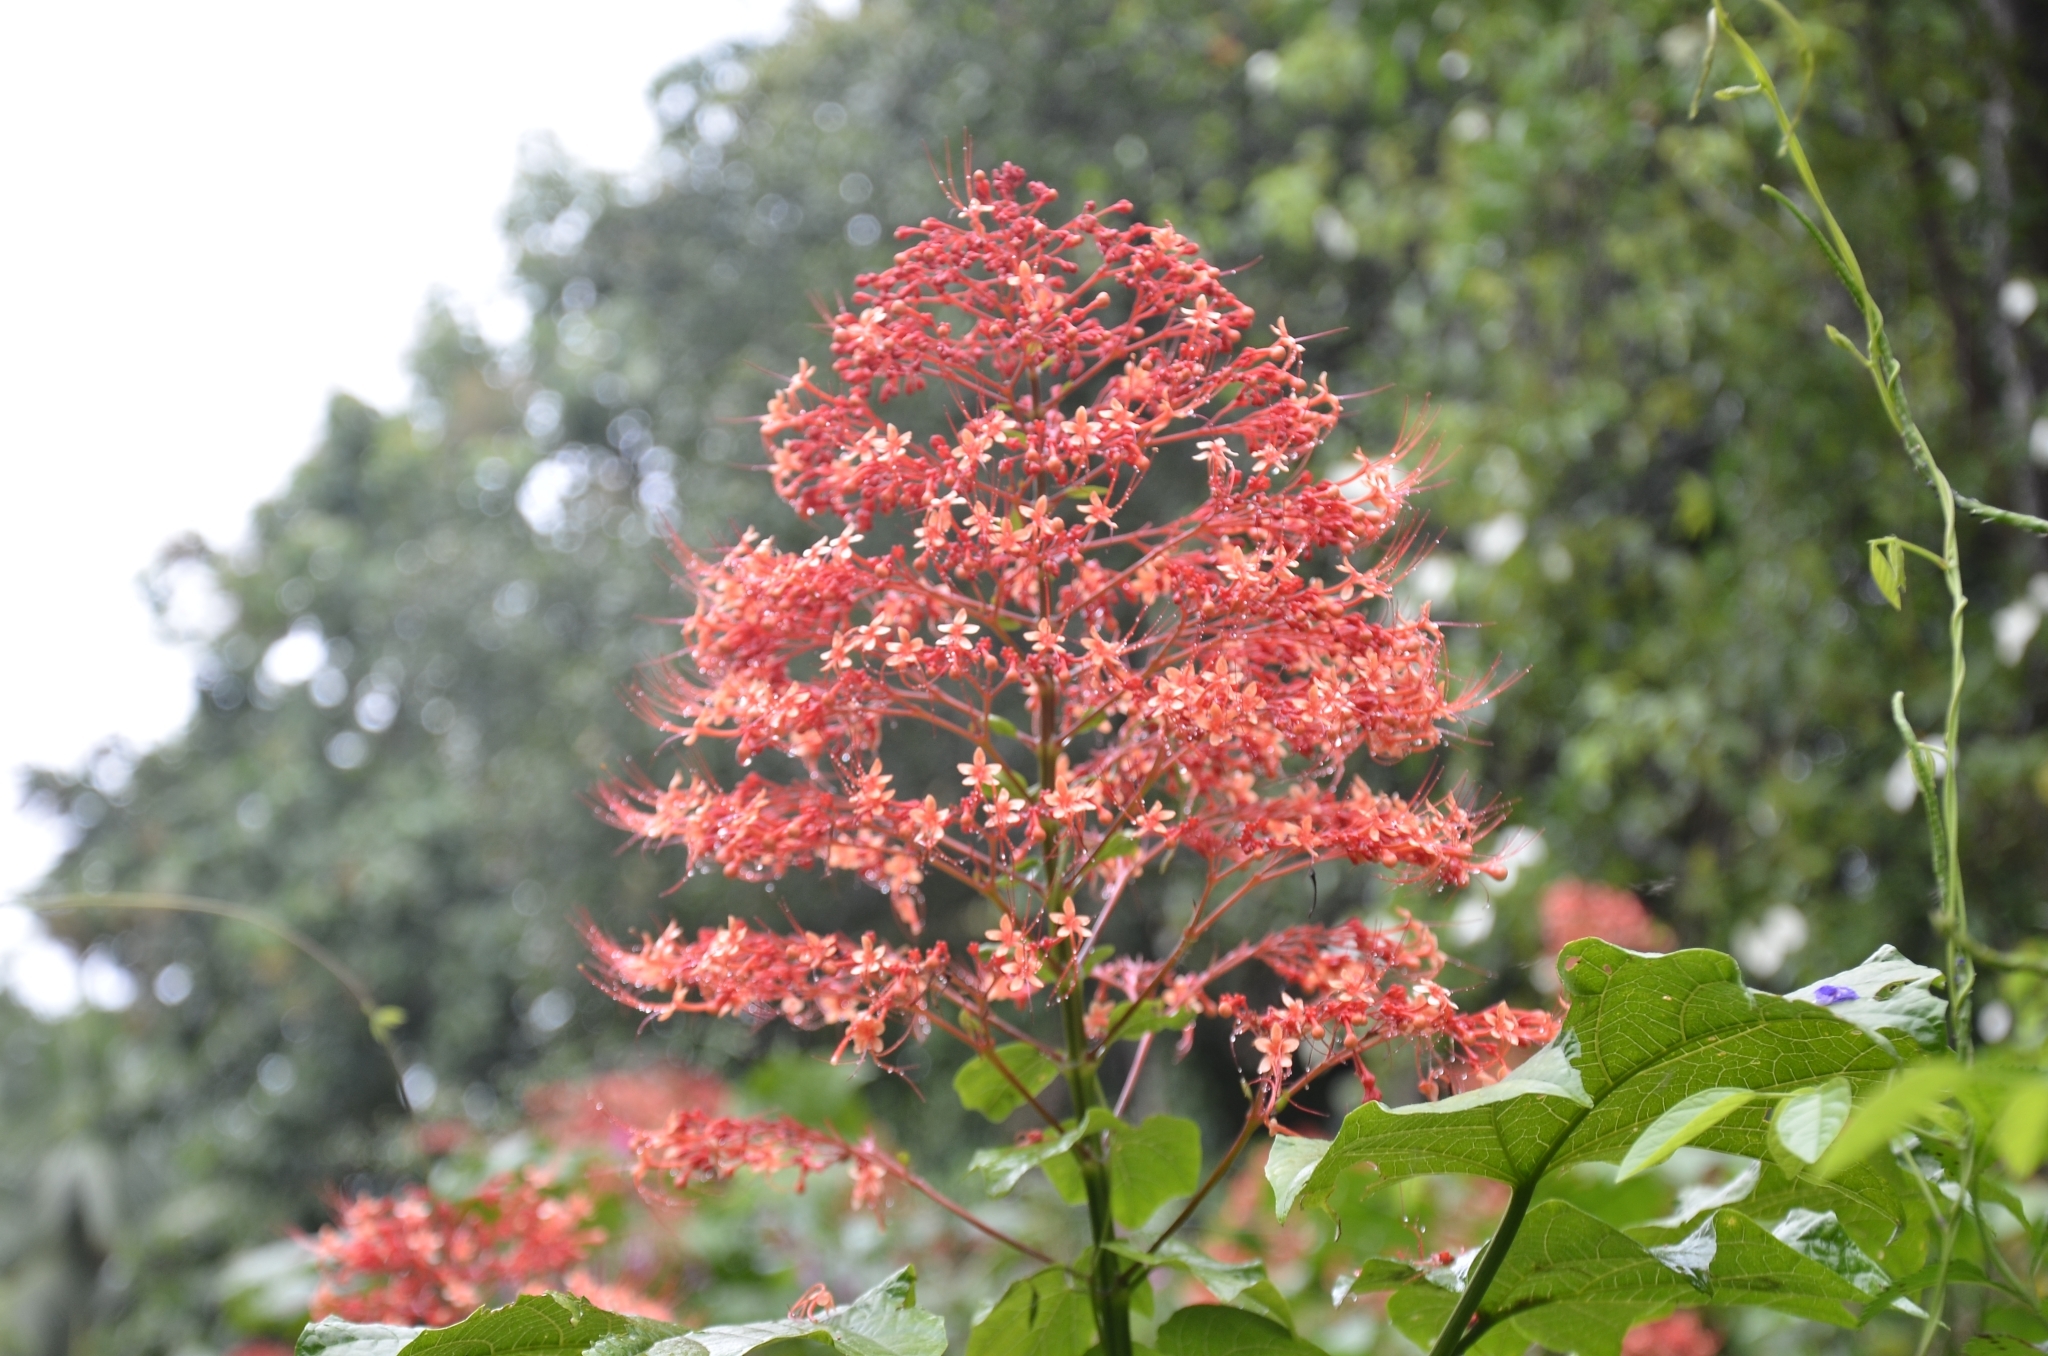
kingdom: Plantae
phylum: Tracheophyta
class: Magnoliopsida
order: Lamiales
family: Lamiaceae
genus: Clerodendrum
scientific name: Clerodendrum paniculatum
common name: Pagoda-flower
